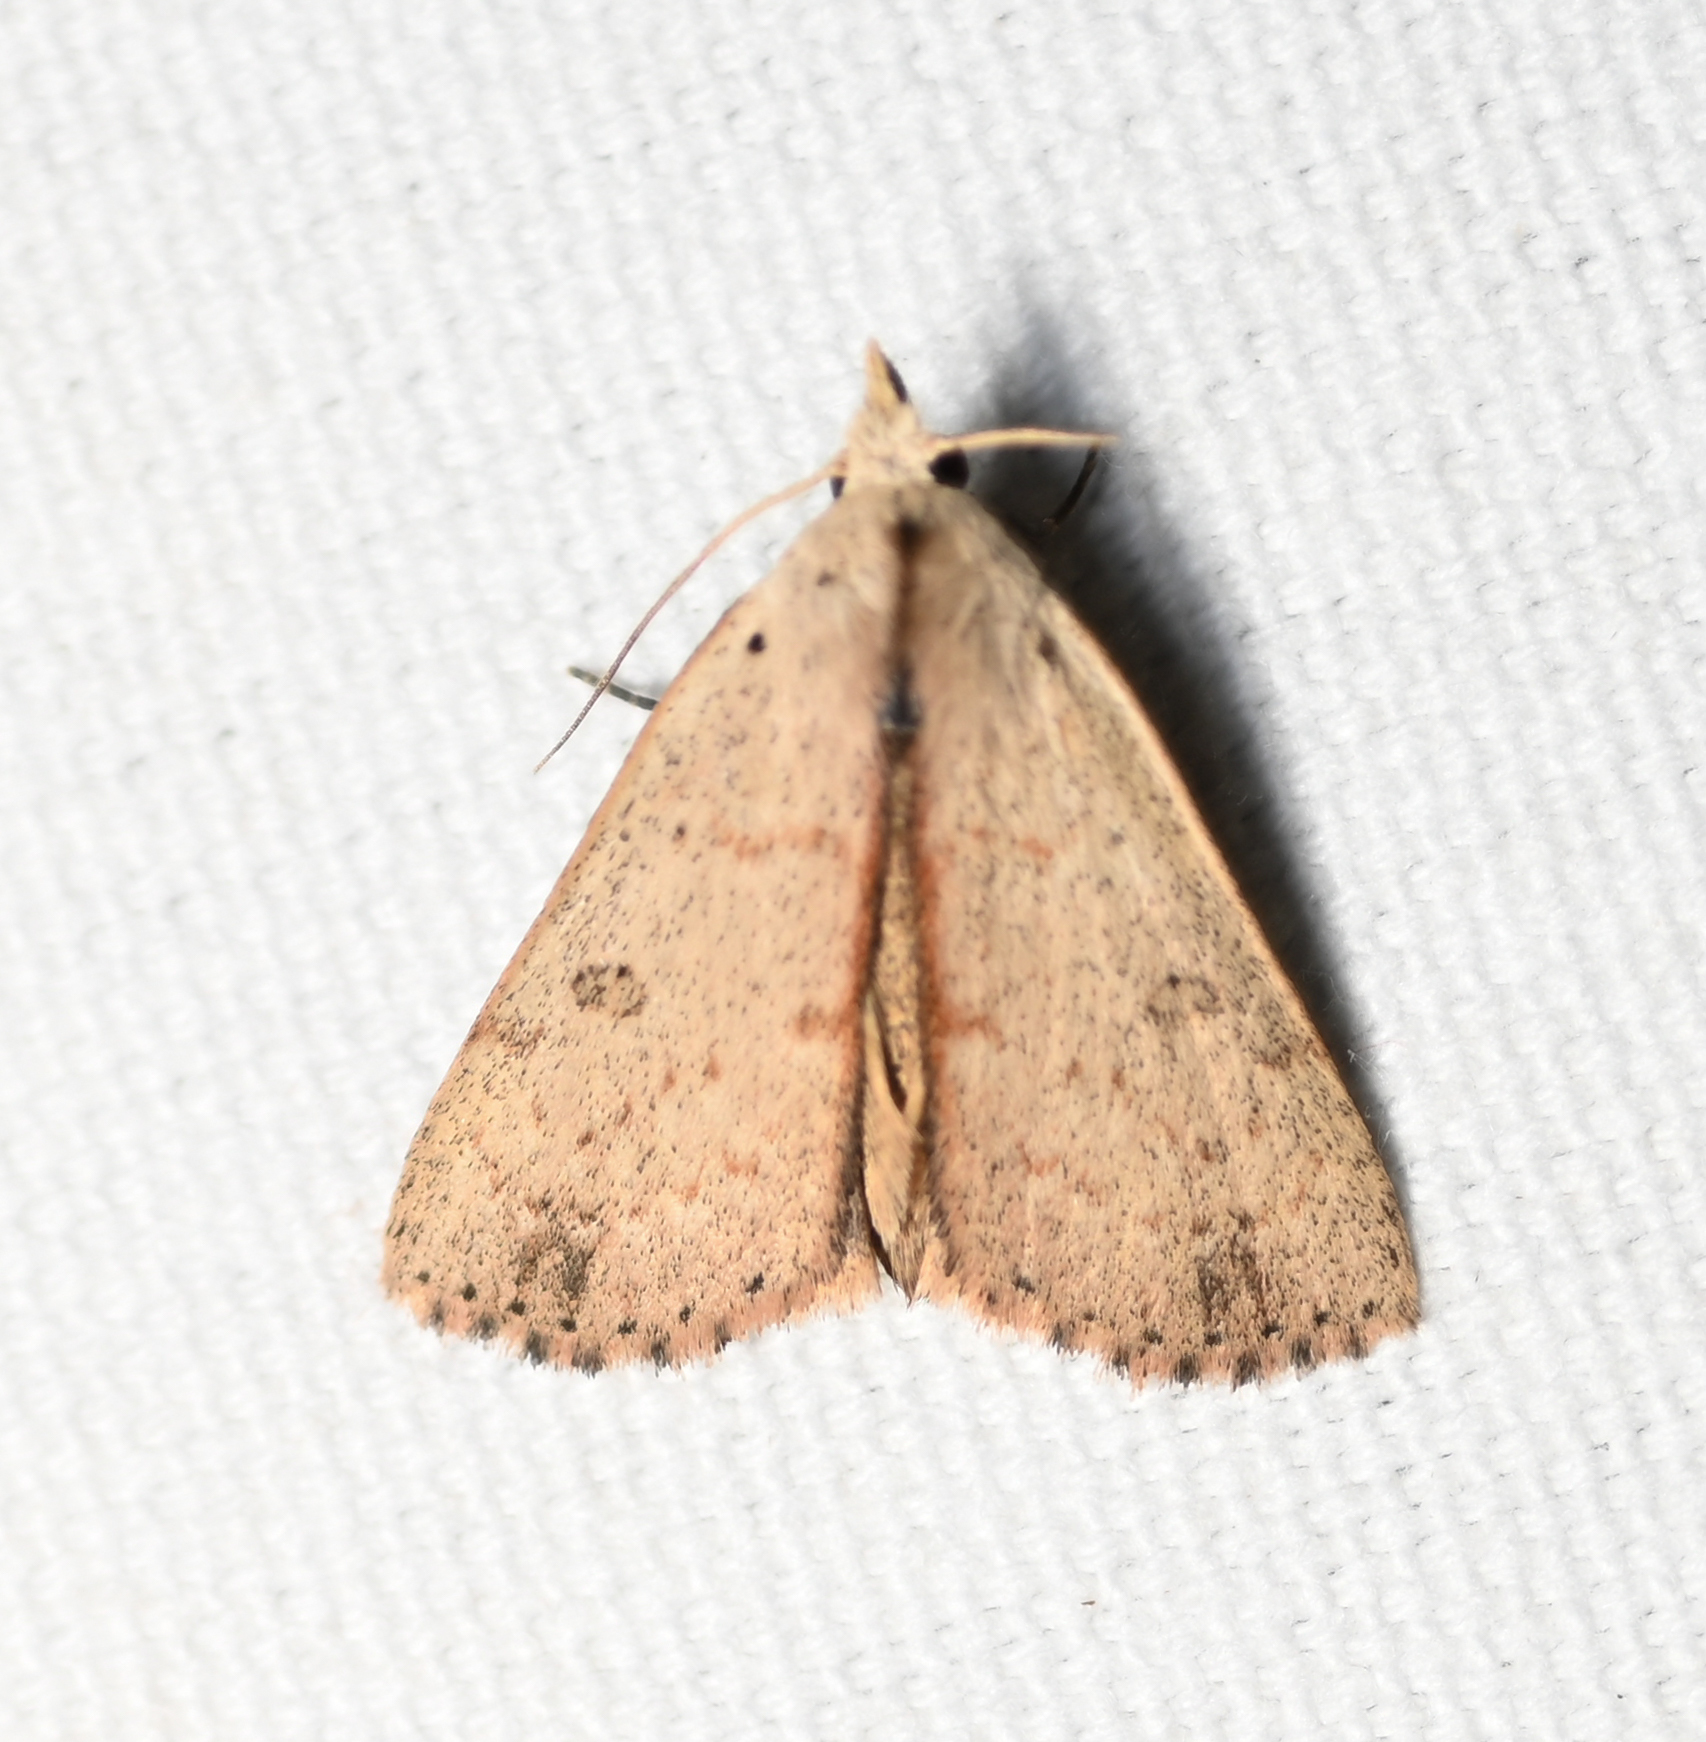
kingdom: Animalia
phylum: Arthropoda
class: Insecta
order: Lepidoptera
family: Erebidae
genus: Scolecocampa
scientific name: Scolecocampa liburna
